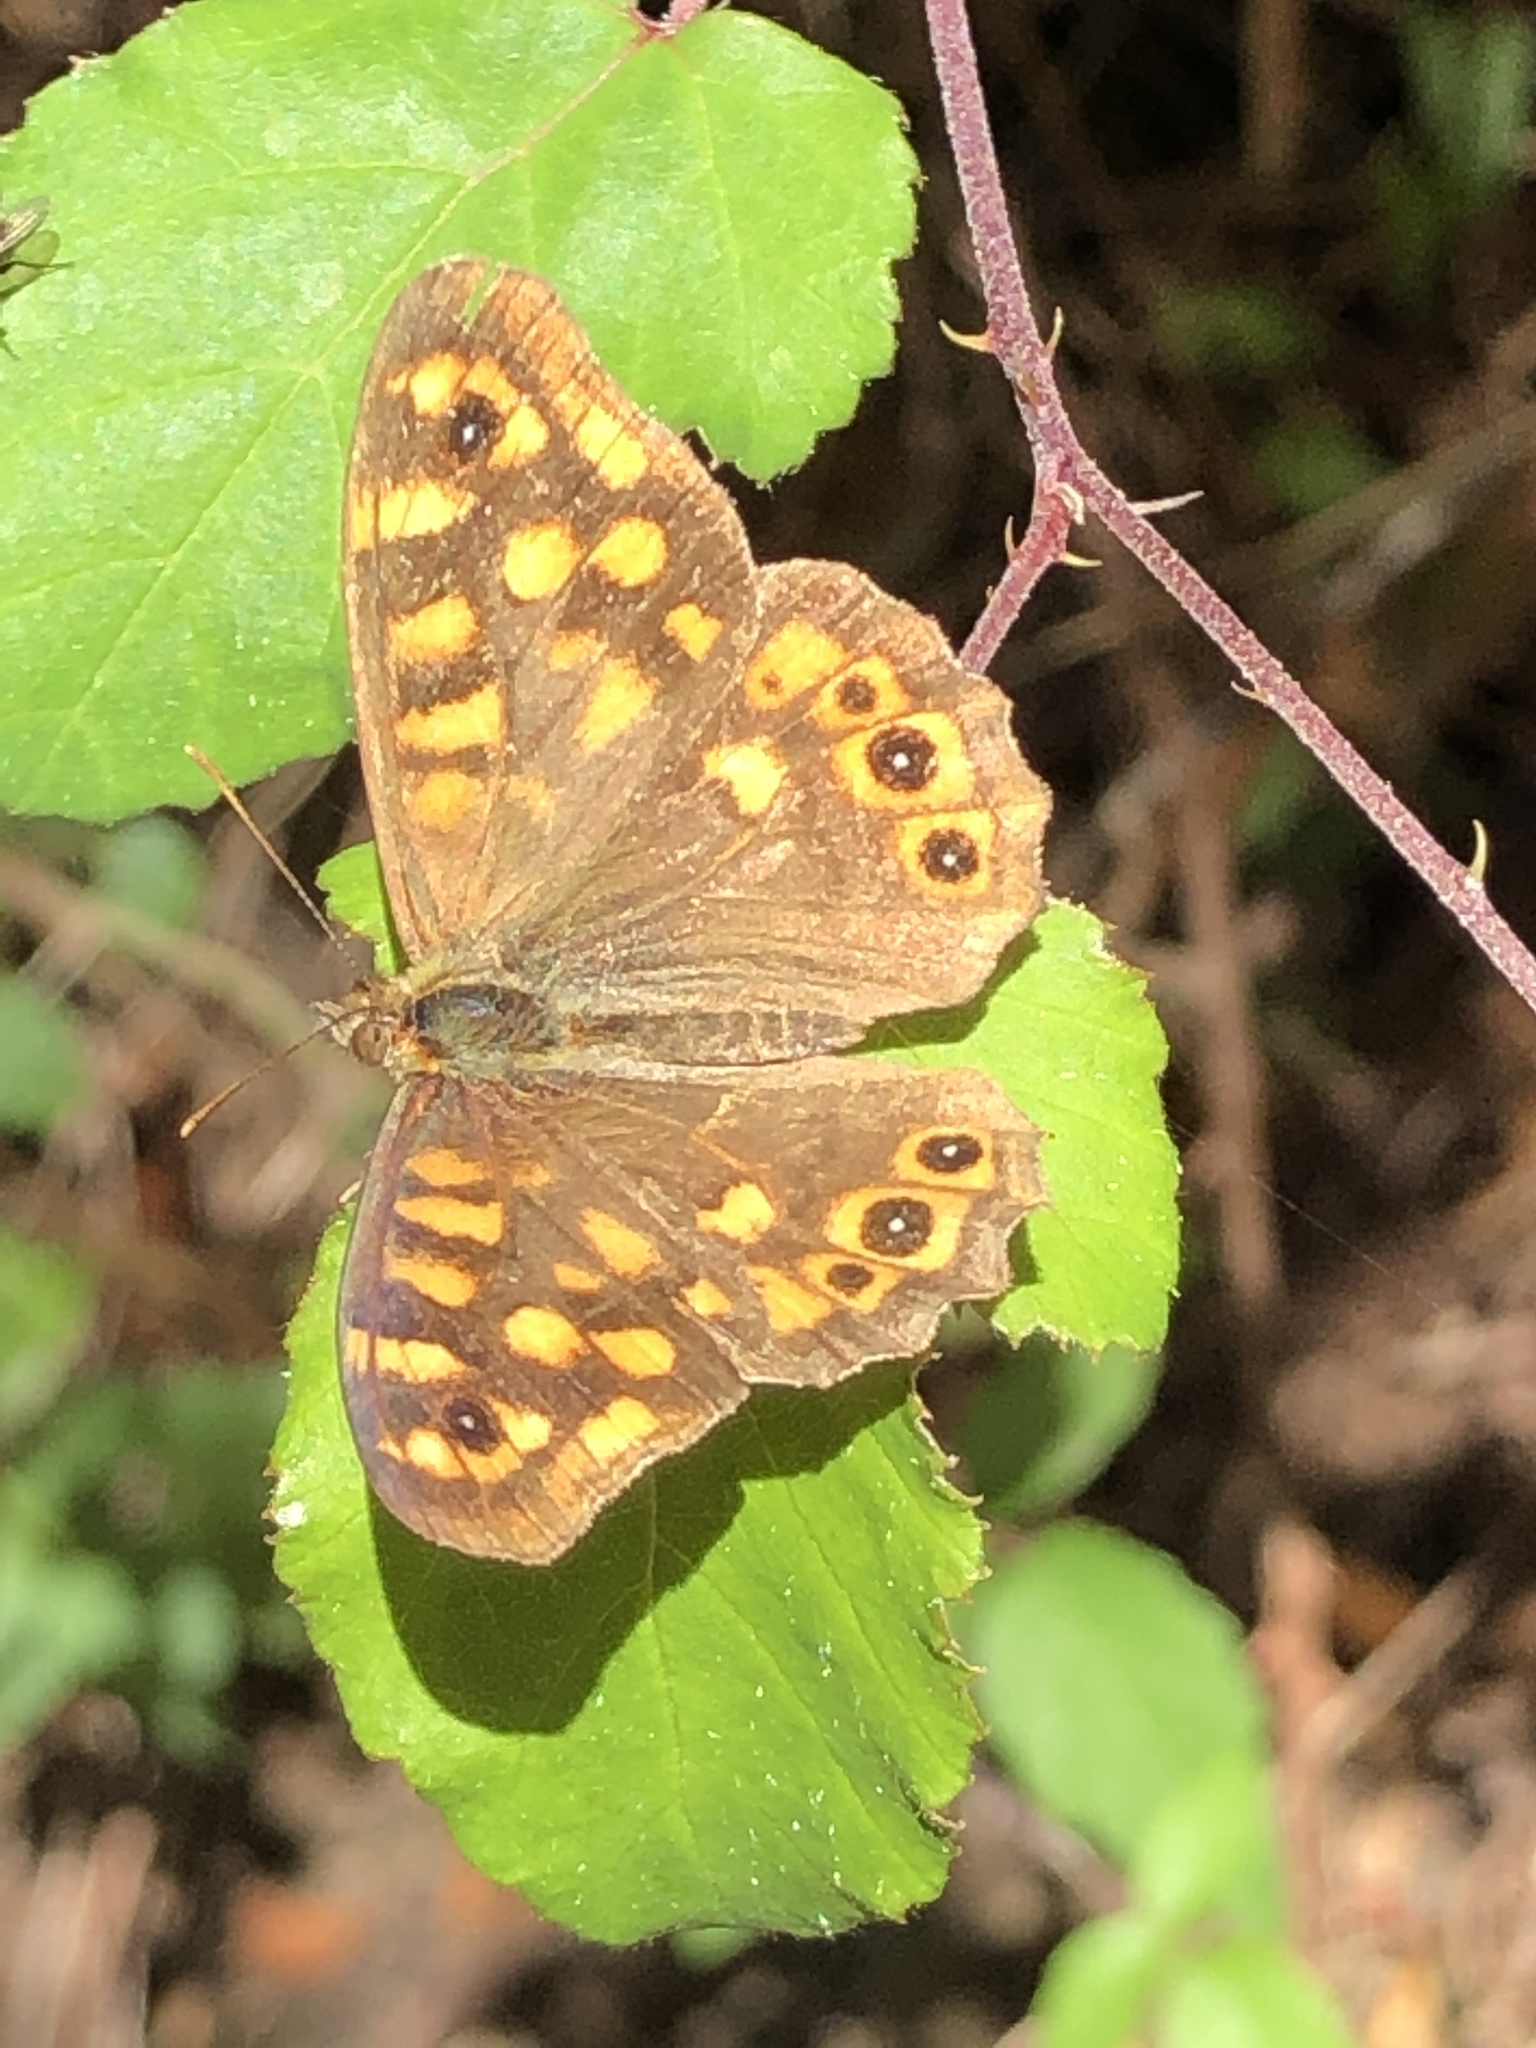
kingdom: Animalia
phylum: Arthropoda
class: Insecta
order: Lepidoptera
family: Nymphalidae
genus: Pararge
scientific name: Pararge aegeria
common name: Speckled wood
